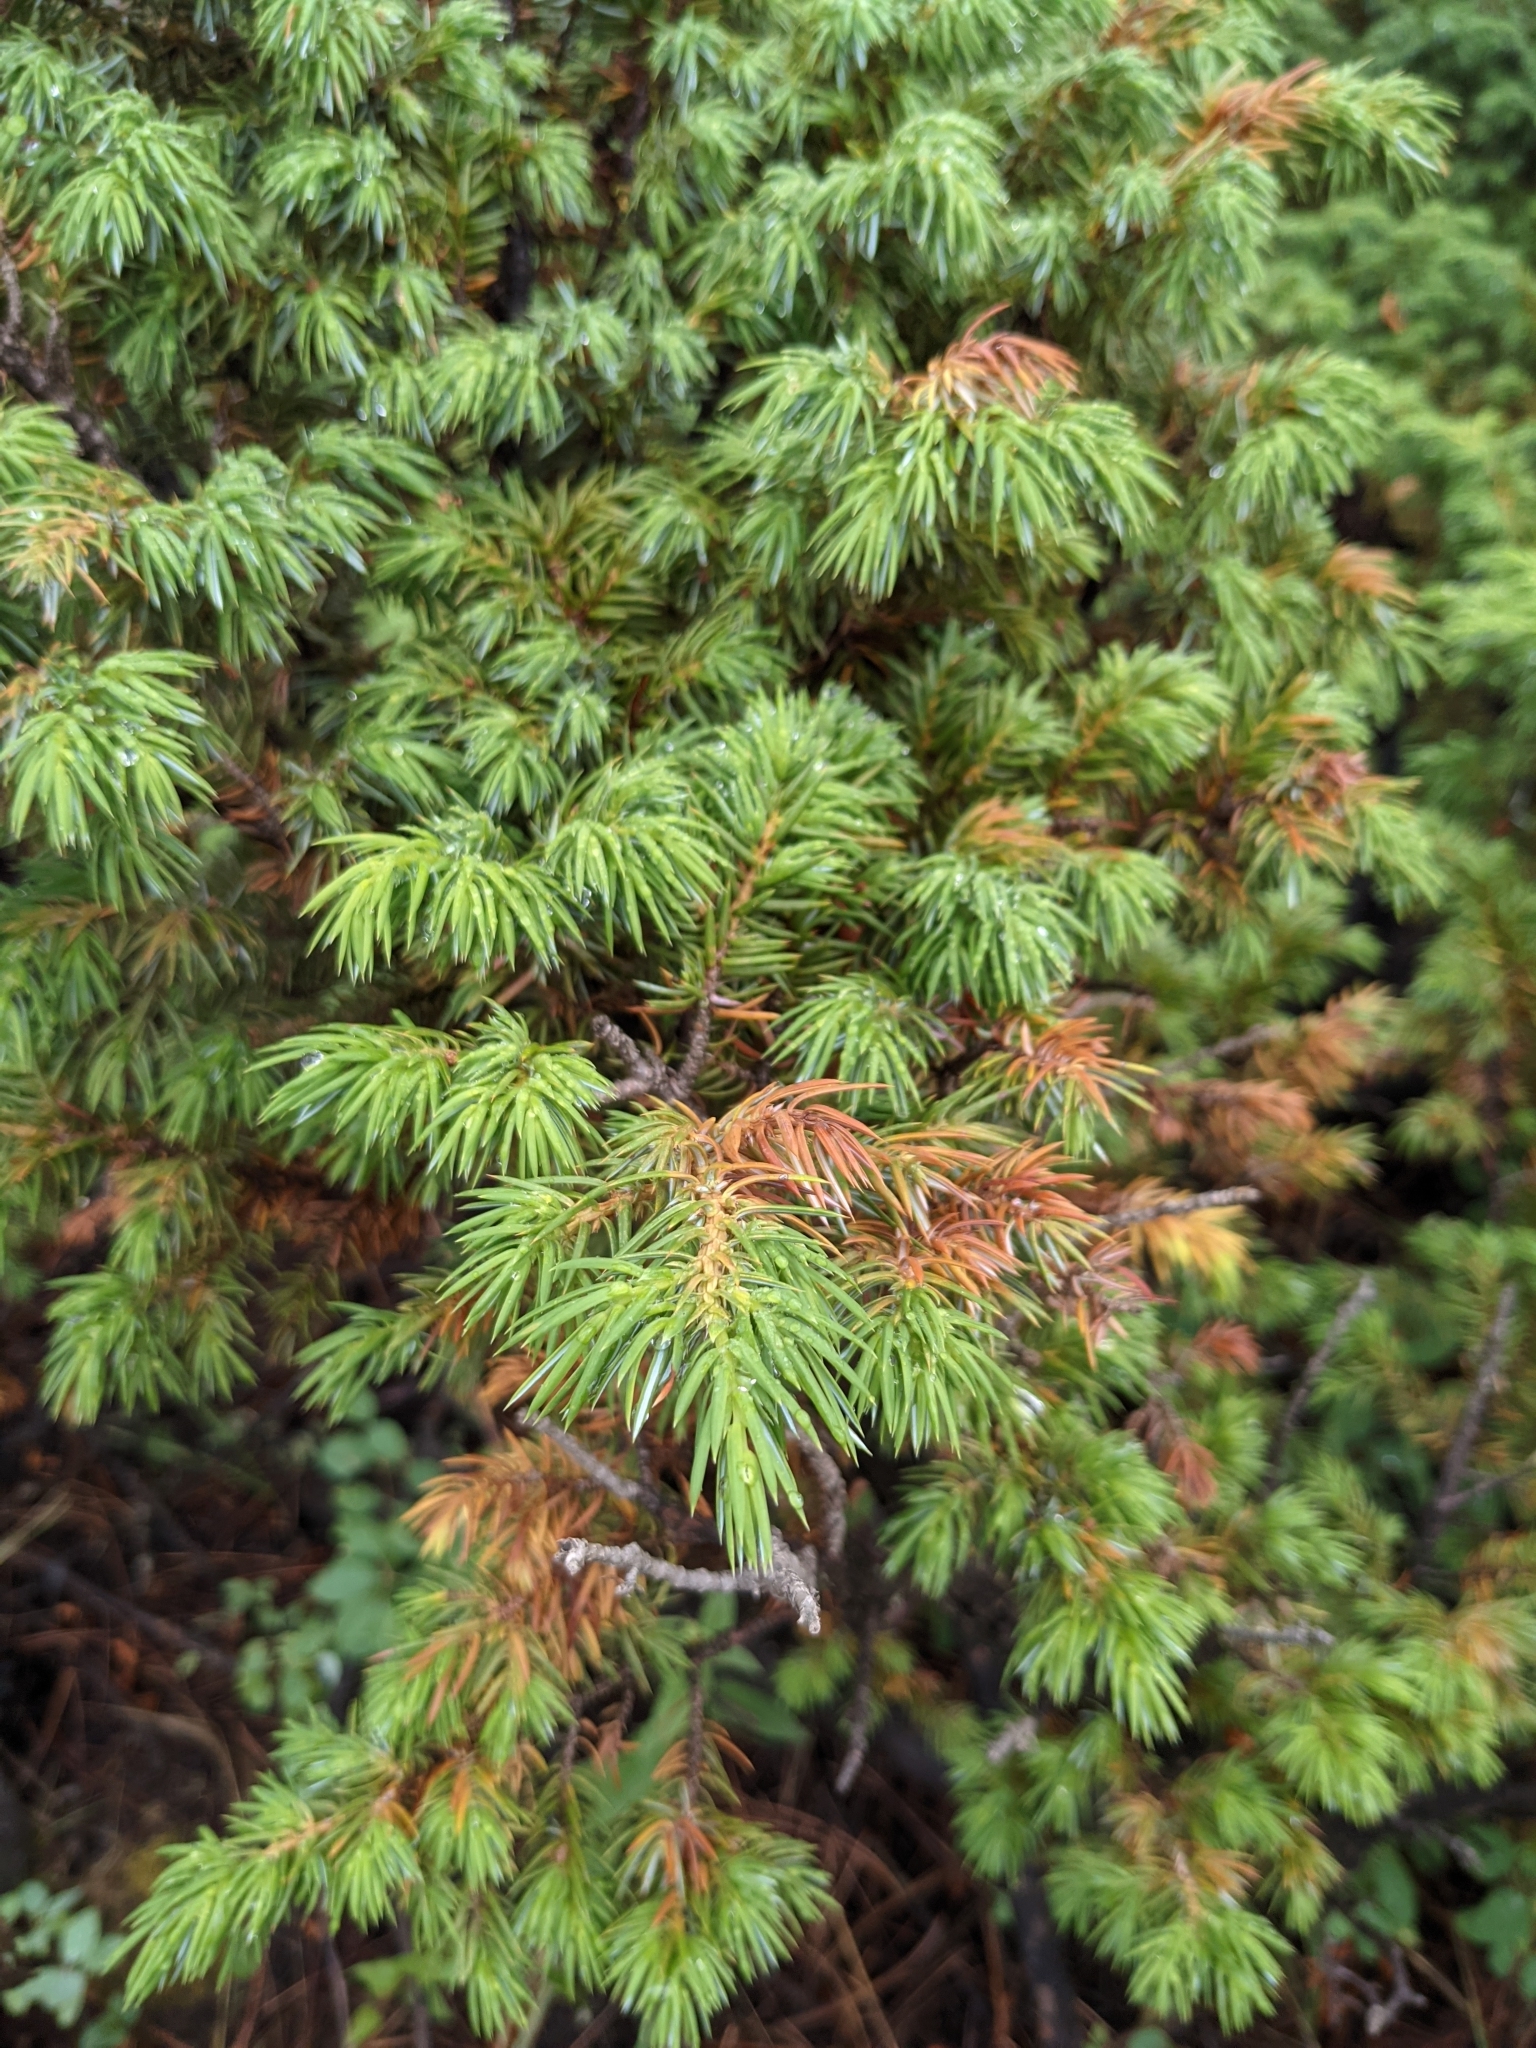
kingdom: Plantae
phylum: Tracheophyta
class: Pinopsida
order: Pinales
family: Cupressaceae
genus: Juniperus
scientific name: Juniperus communis
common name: Common juniper
